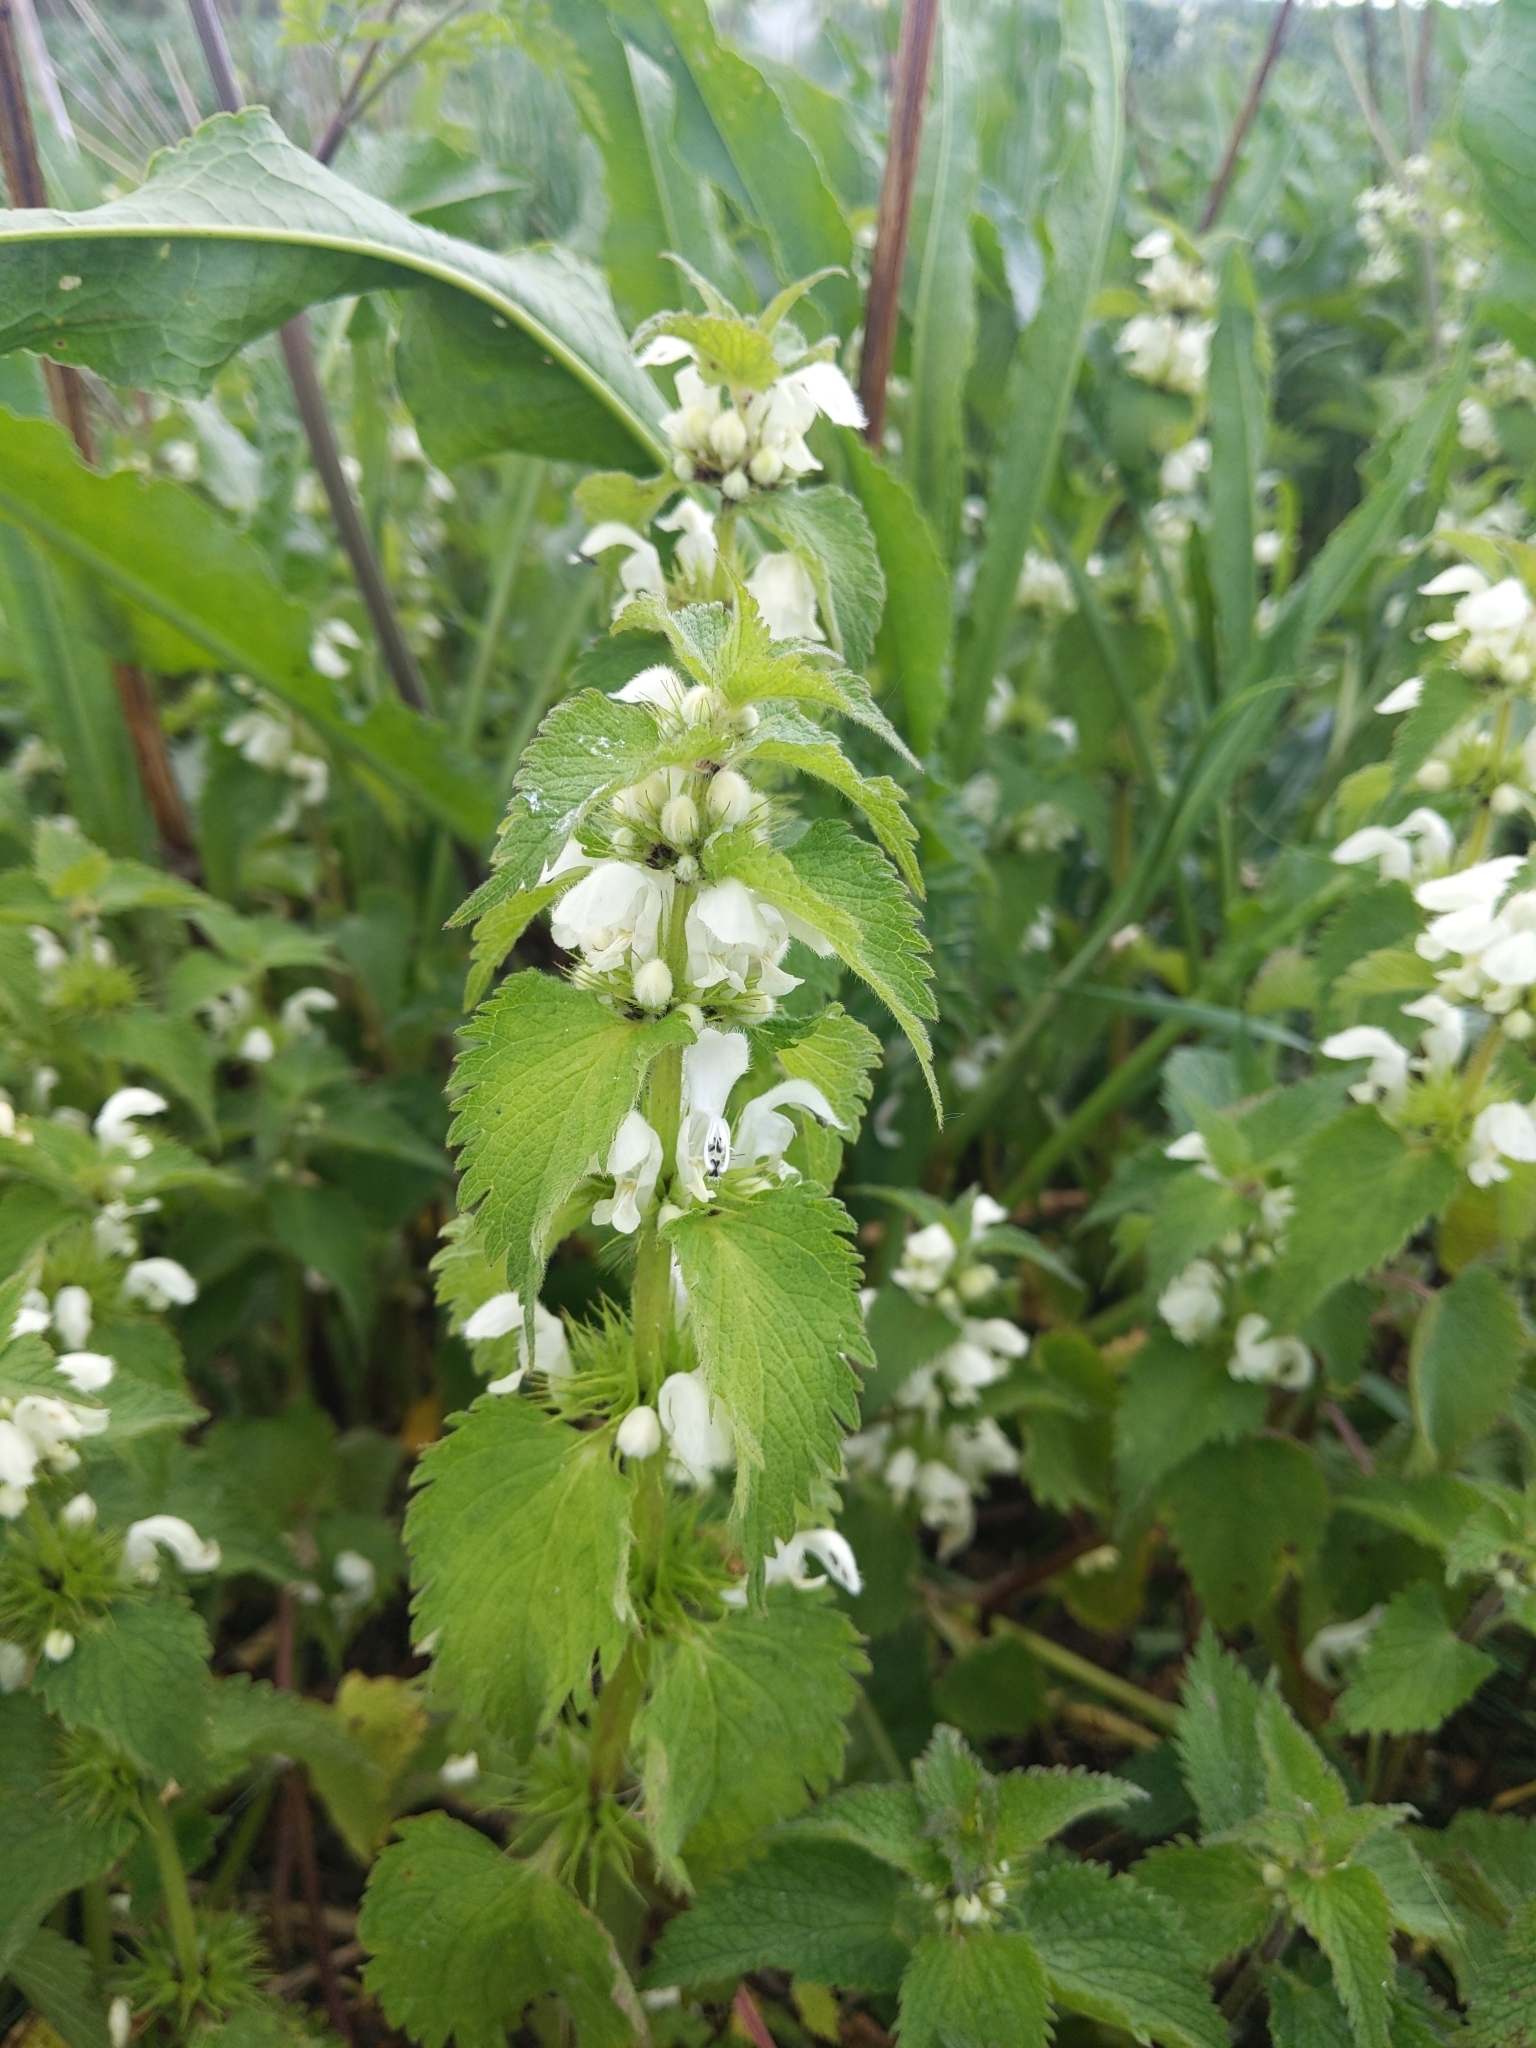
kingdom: Plantae
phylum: Tracheophyta
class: Magnoliopsida
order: Lamiales
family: Lamiaceae
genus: Lamium
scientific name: Lamium album
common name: White dead-nettle
